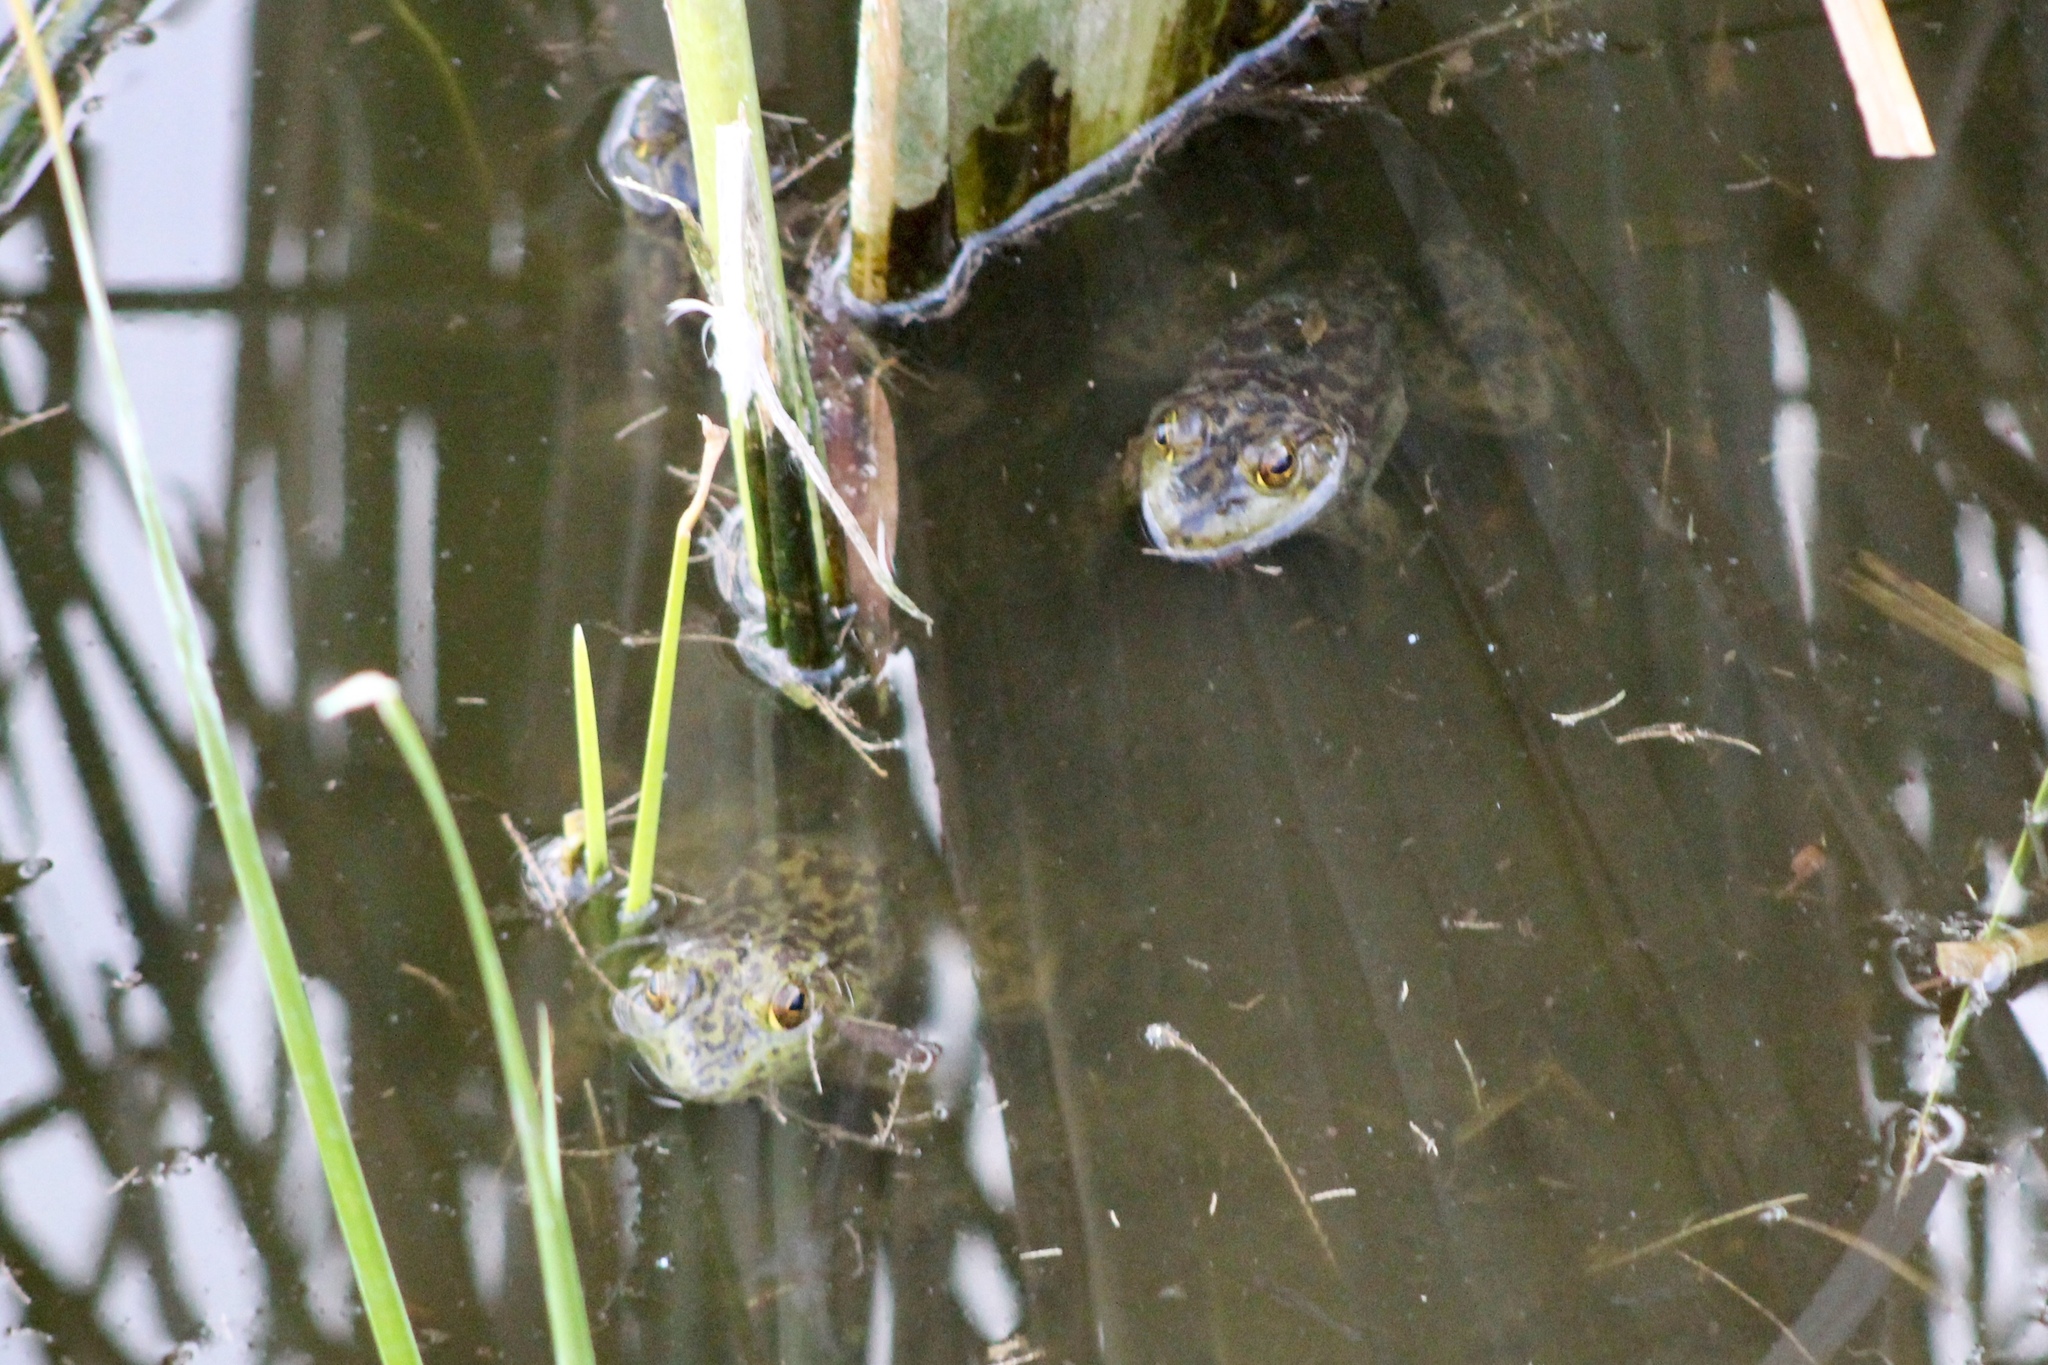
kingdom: Animalia
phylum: Chordata
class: Amphibia
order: Anura
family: Ranidae
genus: Lithobates
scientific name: Lithobates catesbeianus
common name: American bullfrog
